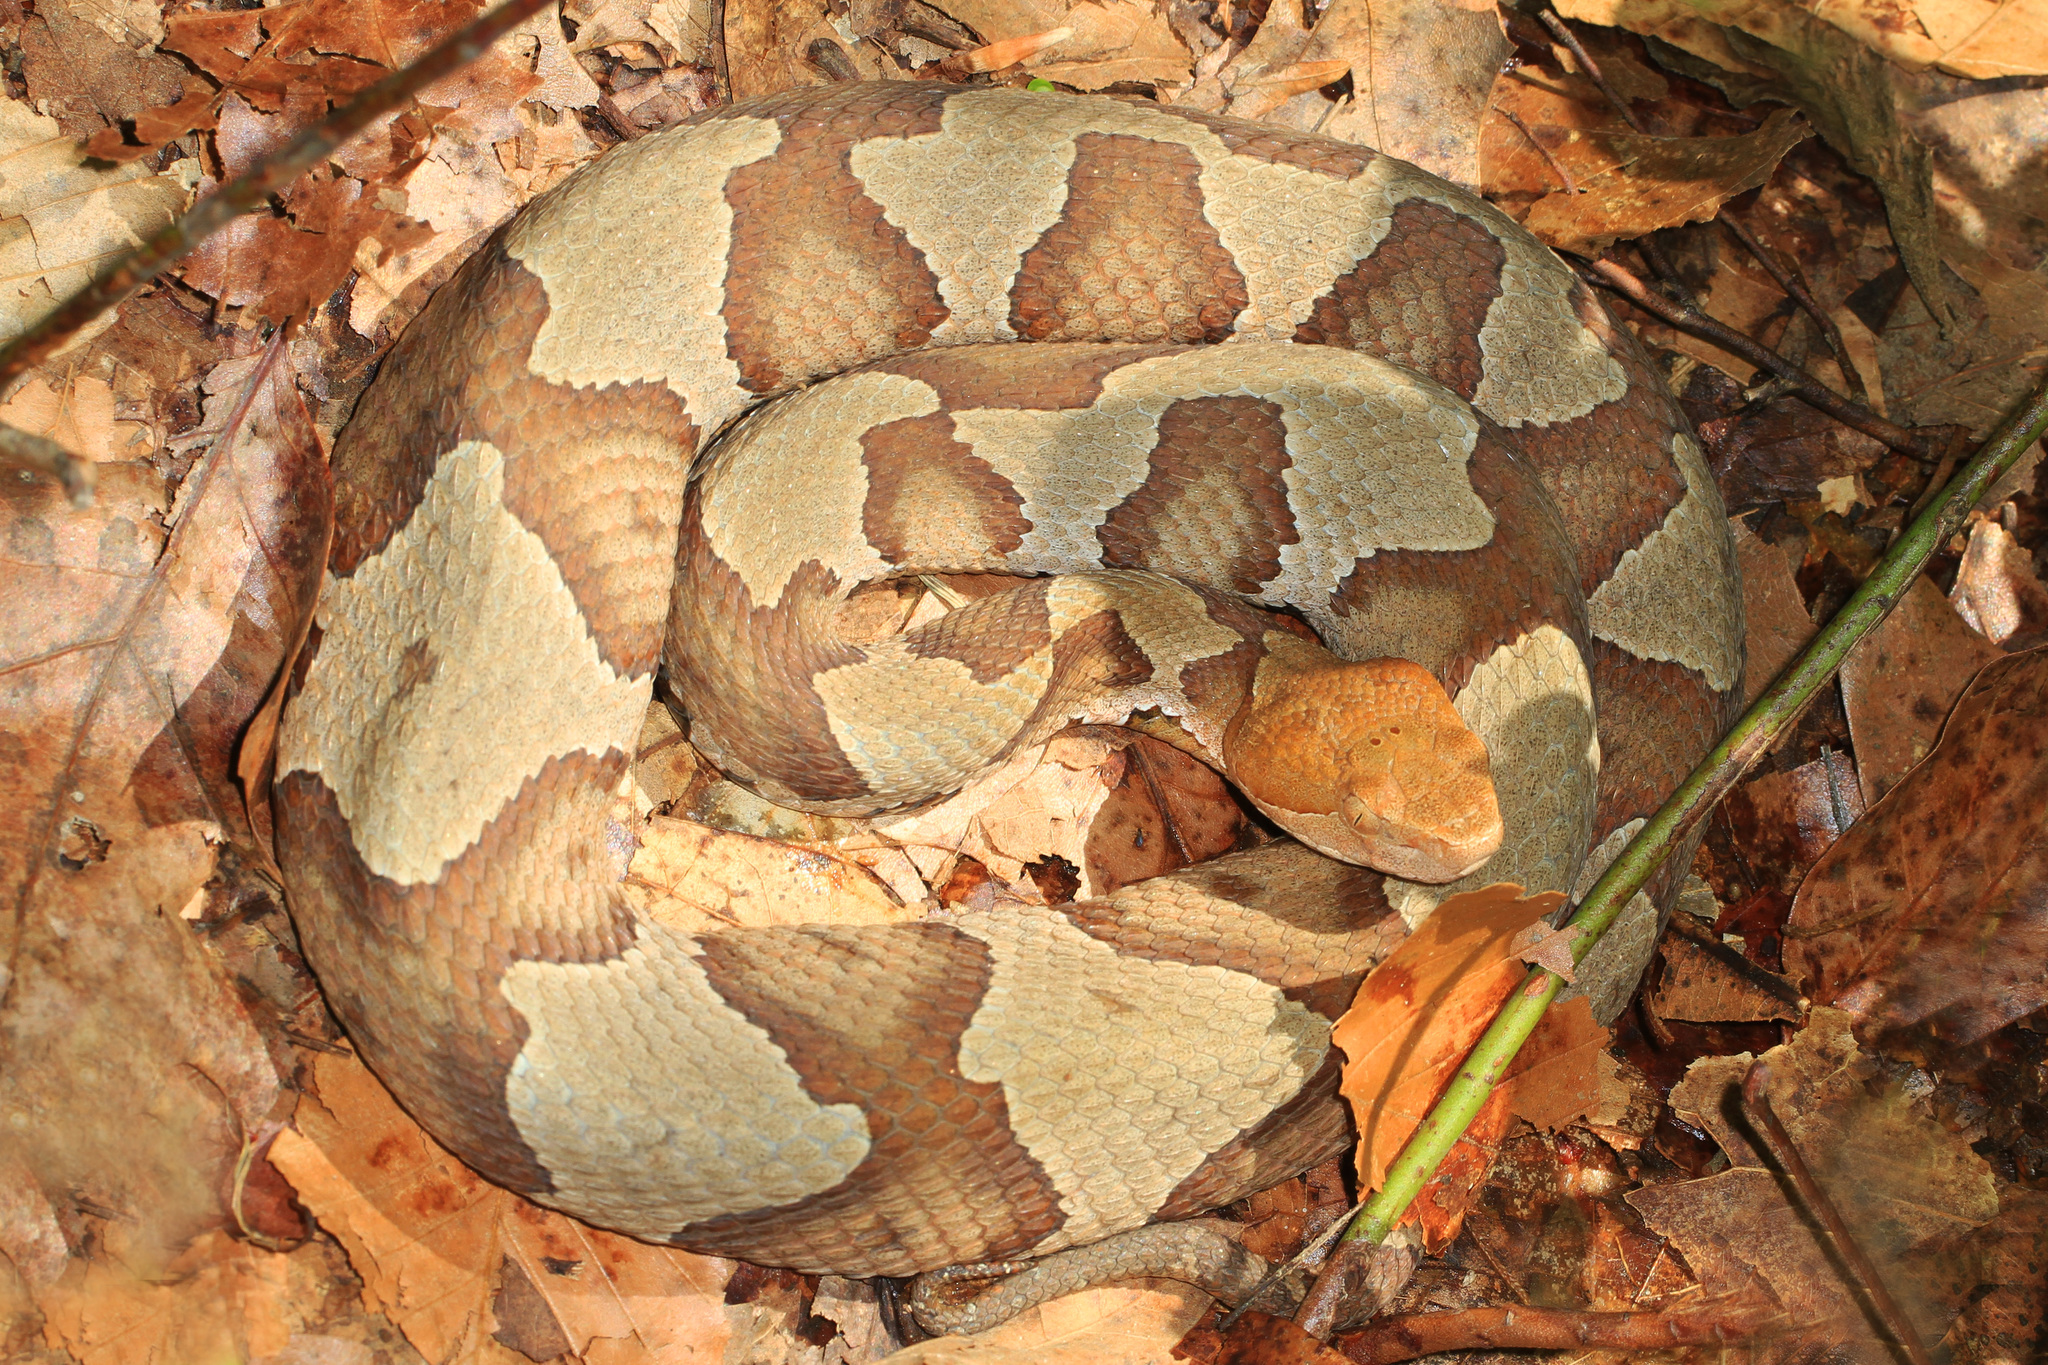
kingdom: Animalia
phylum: Chordata
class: Squamata
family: Viperidae
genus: Agkistrodon
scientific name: Agkistrodon contortrix
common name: Northern copperhead
